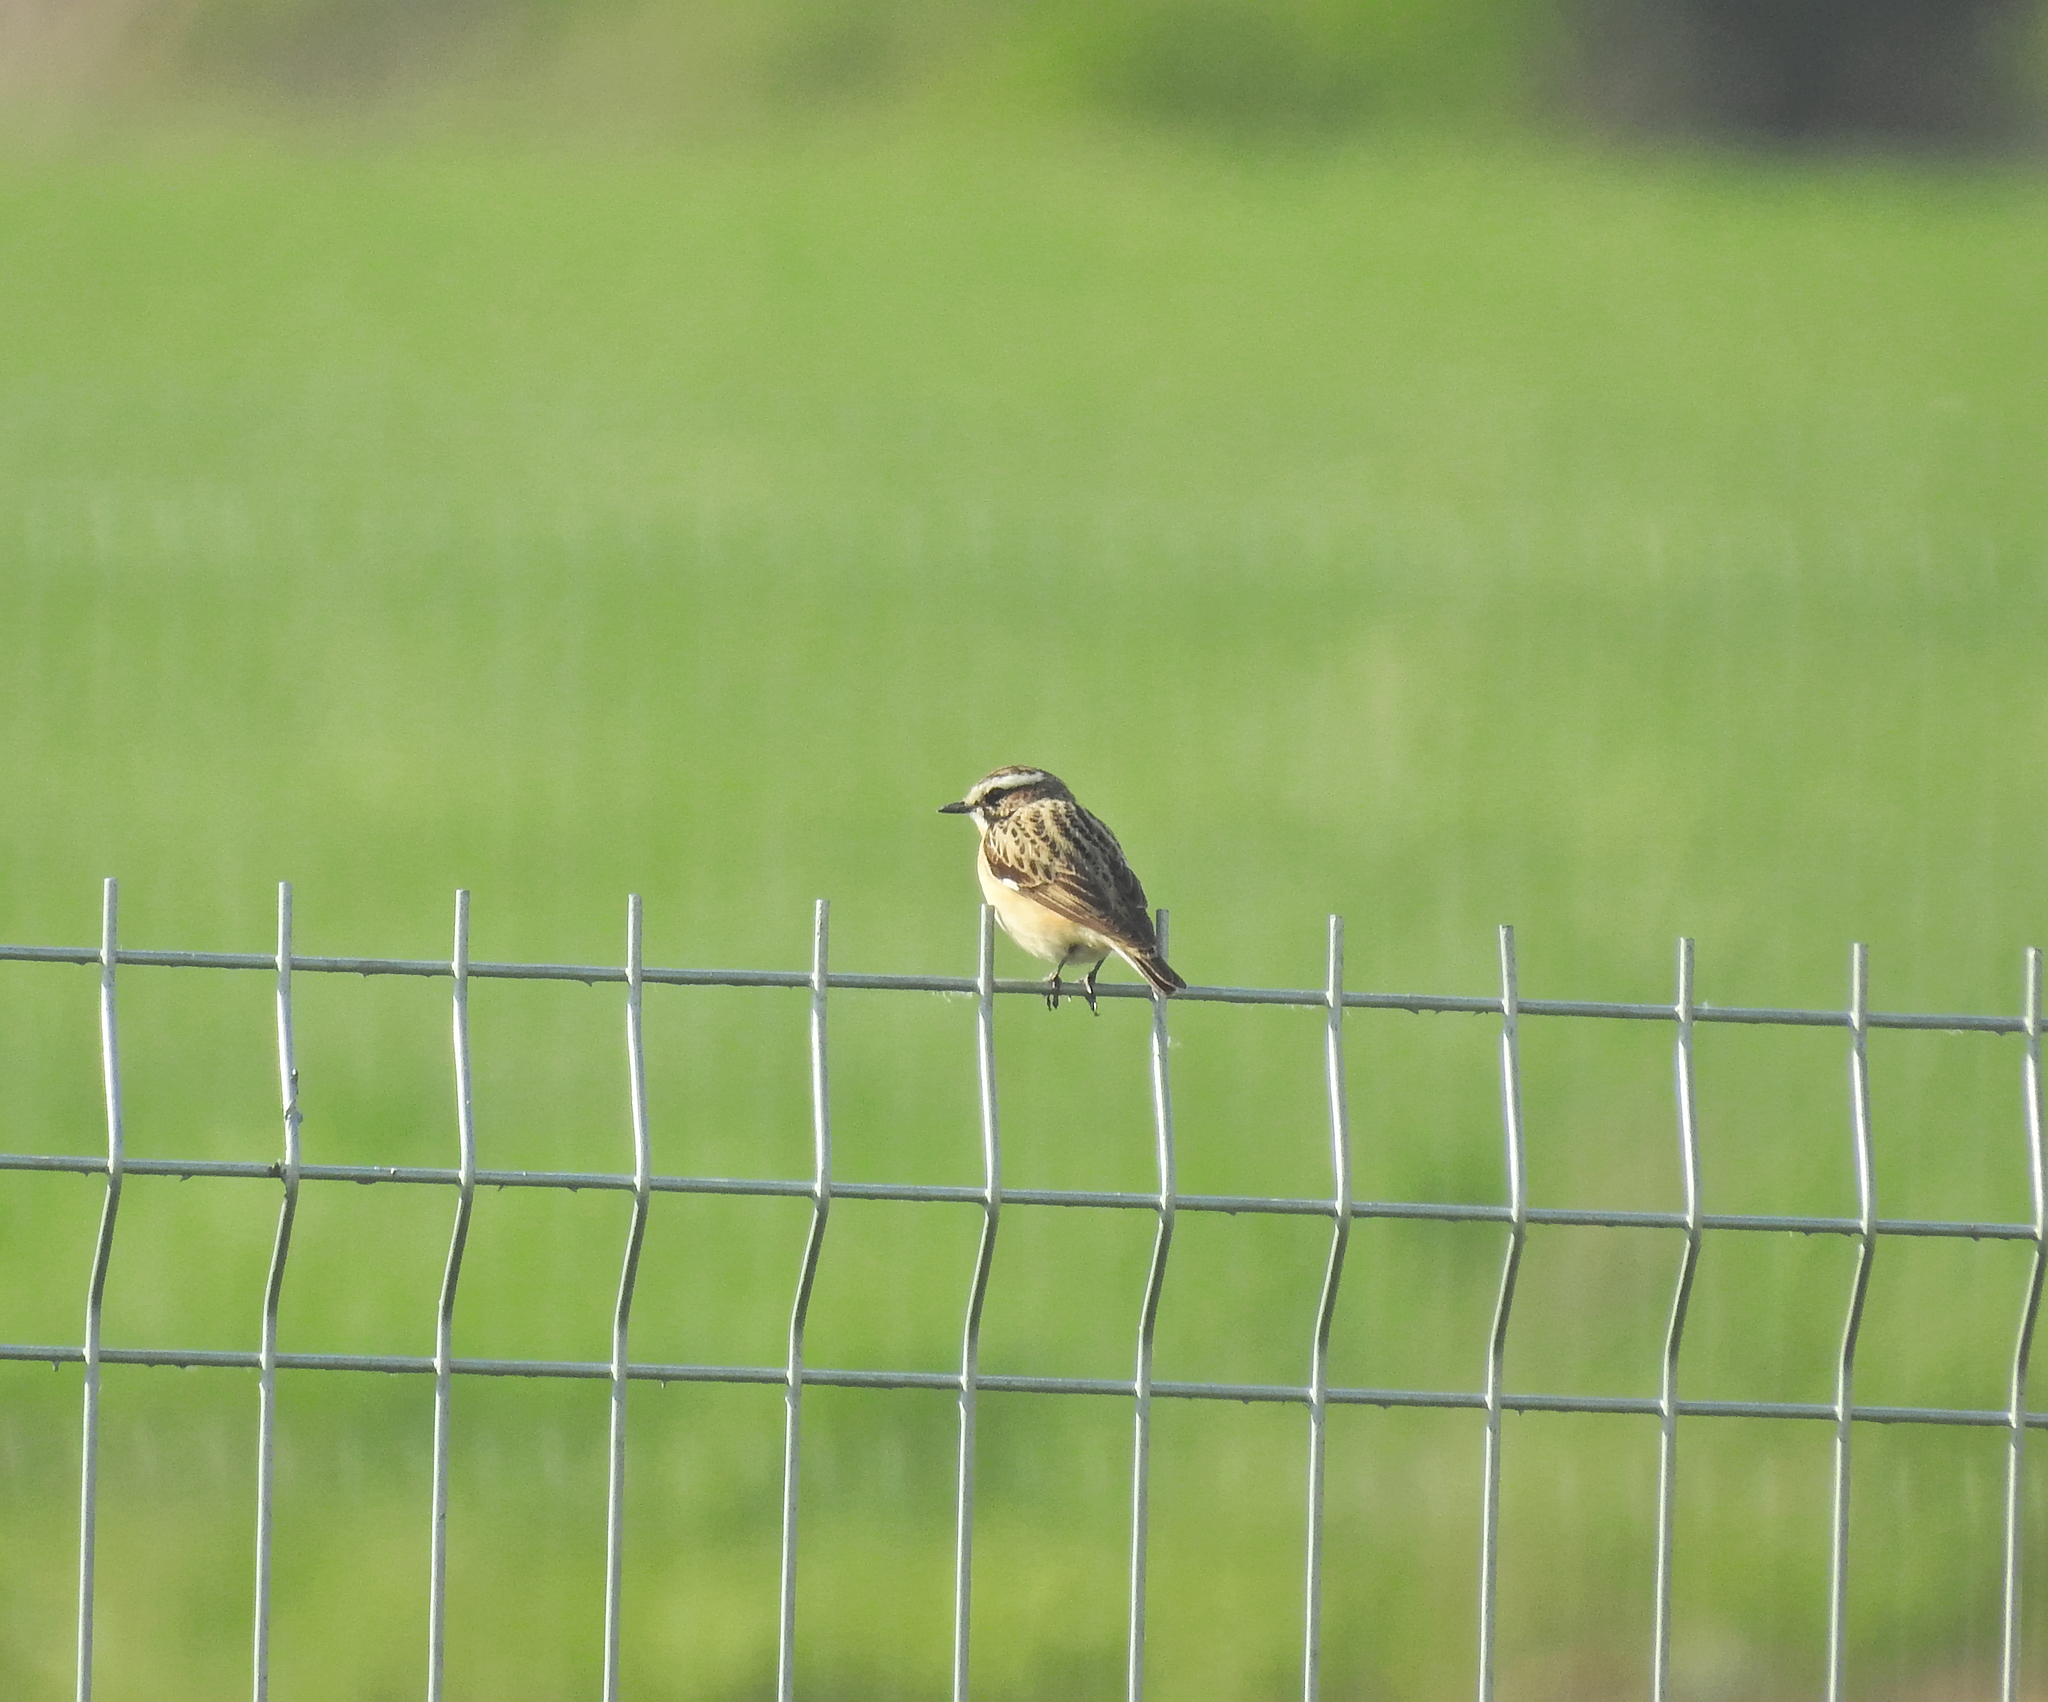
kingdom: Animalia
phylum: Chordata
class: Aves
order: Passeriformes
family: Muscicapidae
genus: Saxicola
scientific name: Saxicola rubetra
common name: Whinchat
